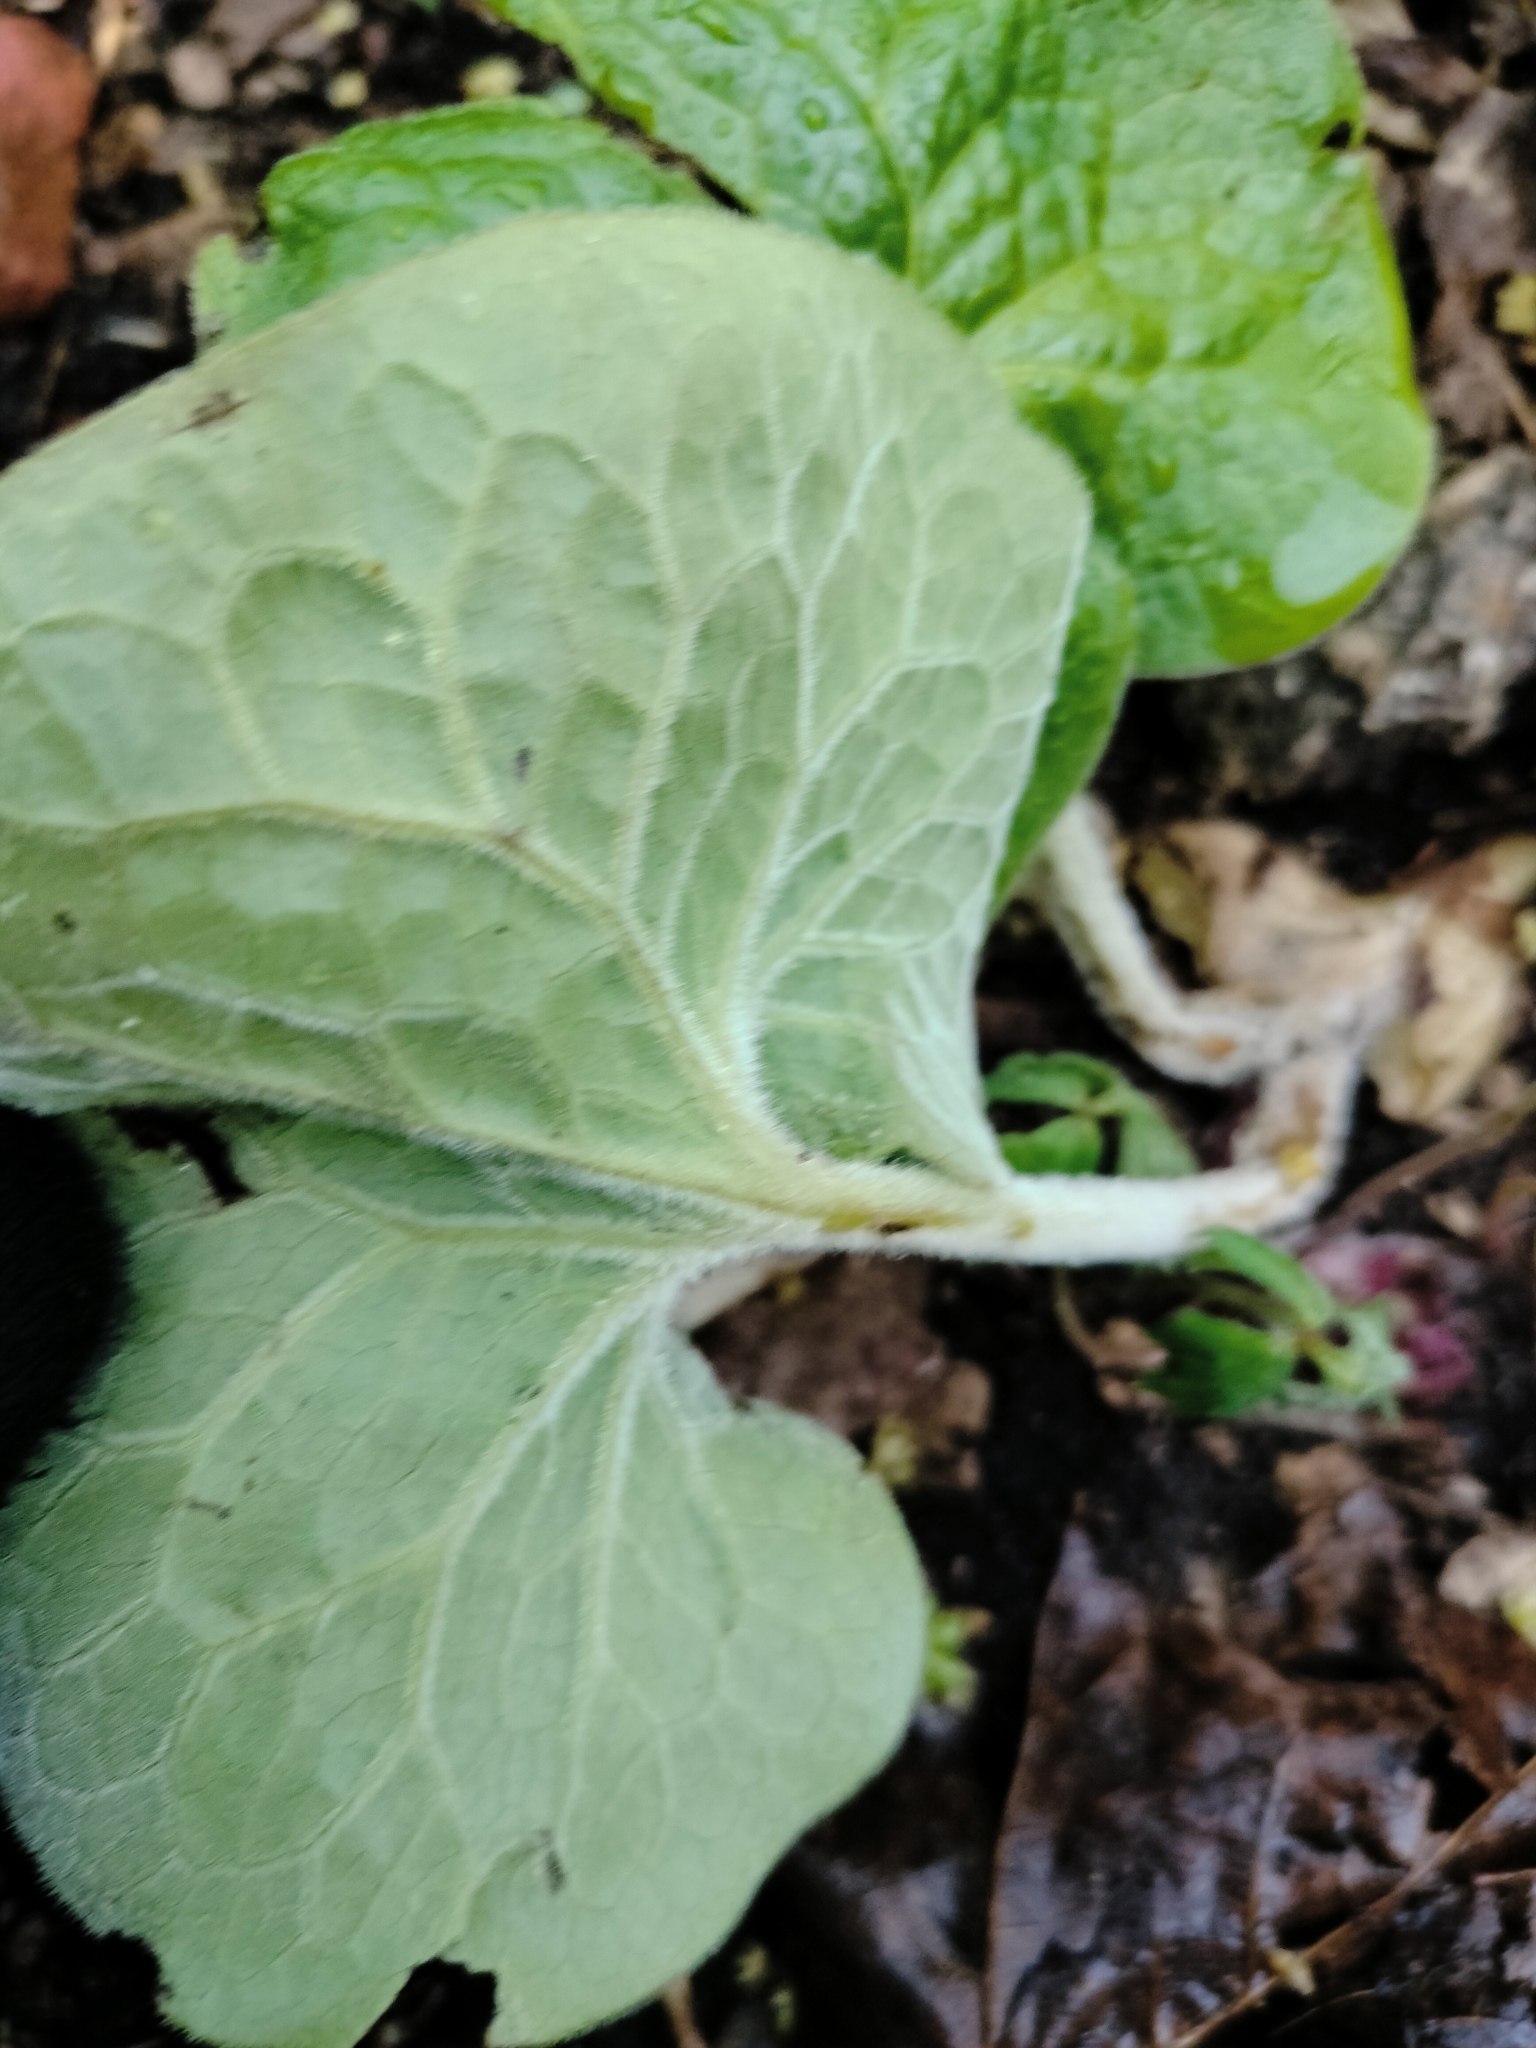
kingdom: Plantae
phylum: Tracheophyta
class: Magnoliopsida
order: Piperales
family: Aristolochiaceae
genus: Asarum
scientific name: Asarum canadense
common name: Wild ginger
